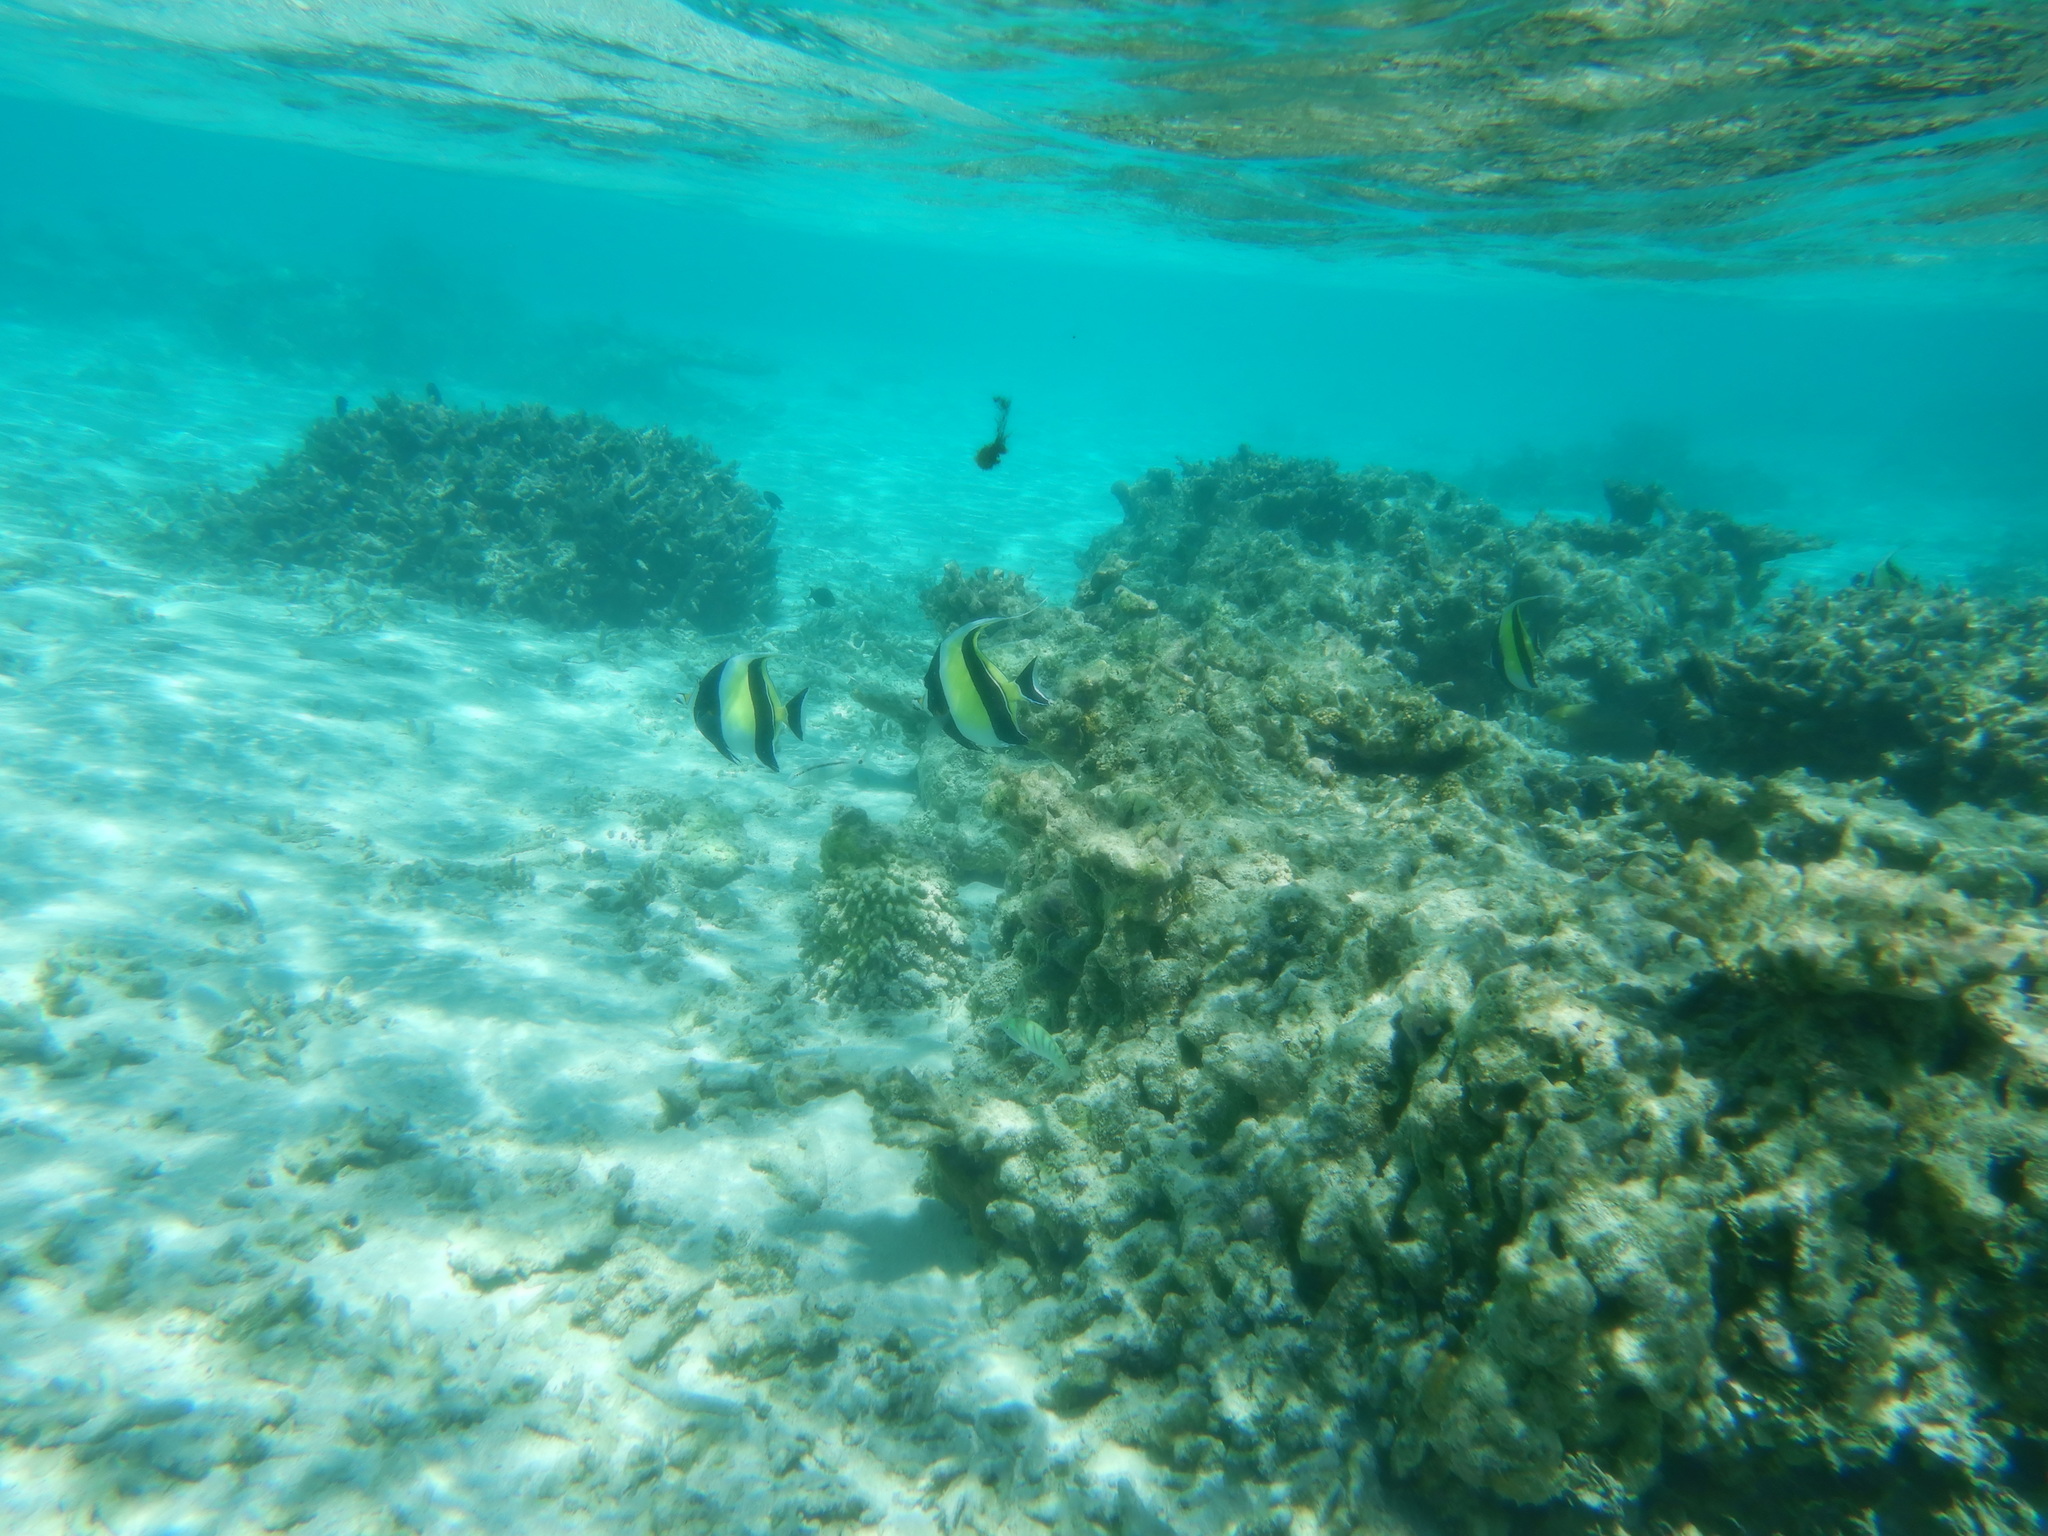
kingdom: Animalia
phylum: Chordata
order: Perciformes
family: Zanclidae
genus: Zanclus
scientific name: Zanclus cornutus
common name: Moorish idol
